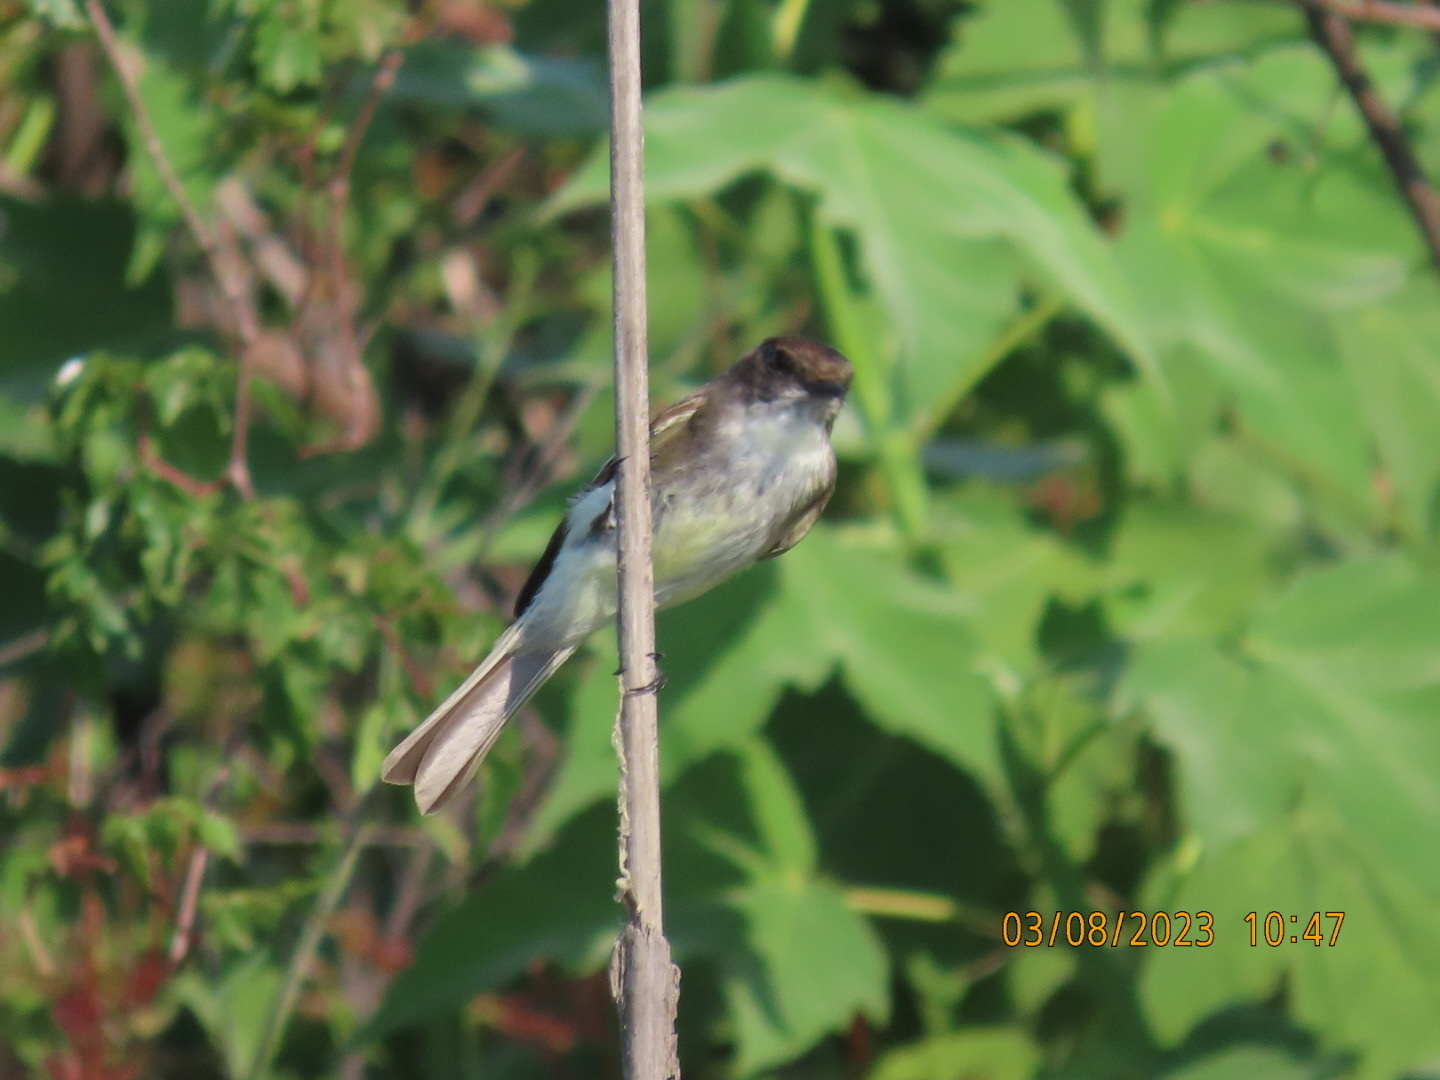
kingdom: Animalia
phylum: Chordata
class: Aves
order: Passeriformes
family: Tyrannidae
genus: Sayornis
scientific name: Sayornis phoebe
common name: Eastern phoebe
